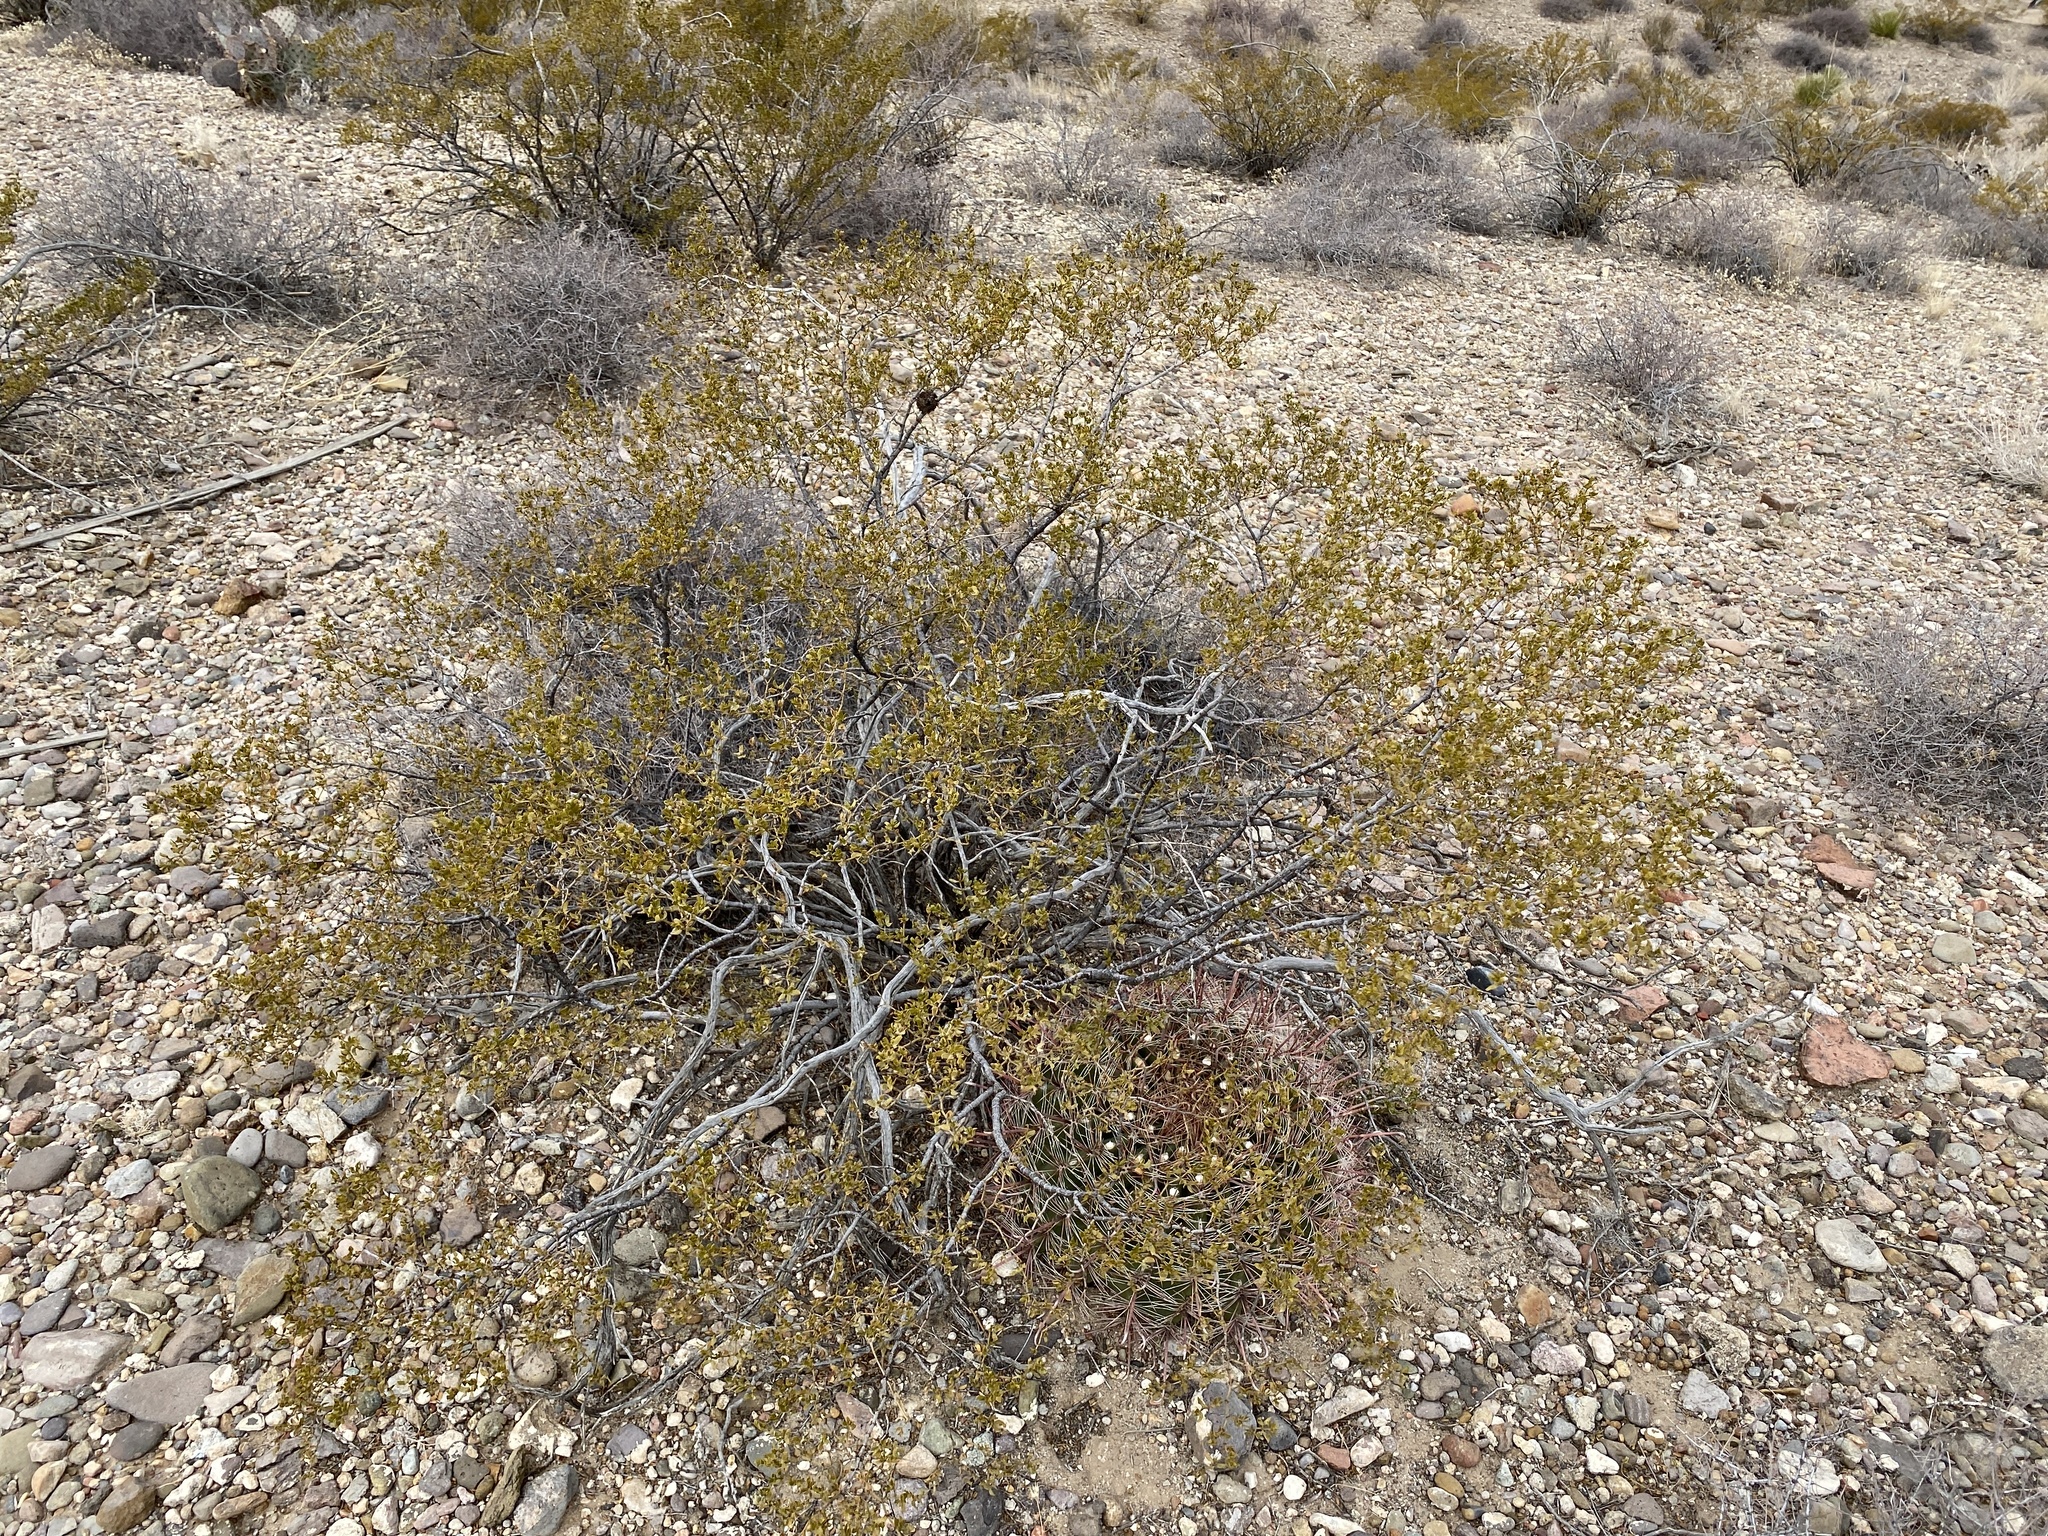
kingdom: Plantae
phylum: Tracheophyta
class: Magnoliopsida
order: Zygophyllales
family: Zygophyllaceae
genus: Larrea
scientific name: Larrea tridentata
